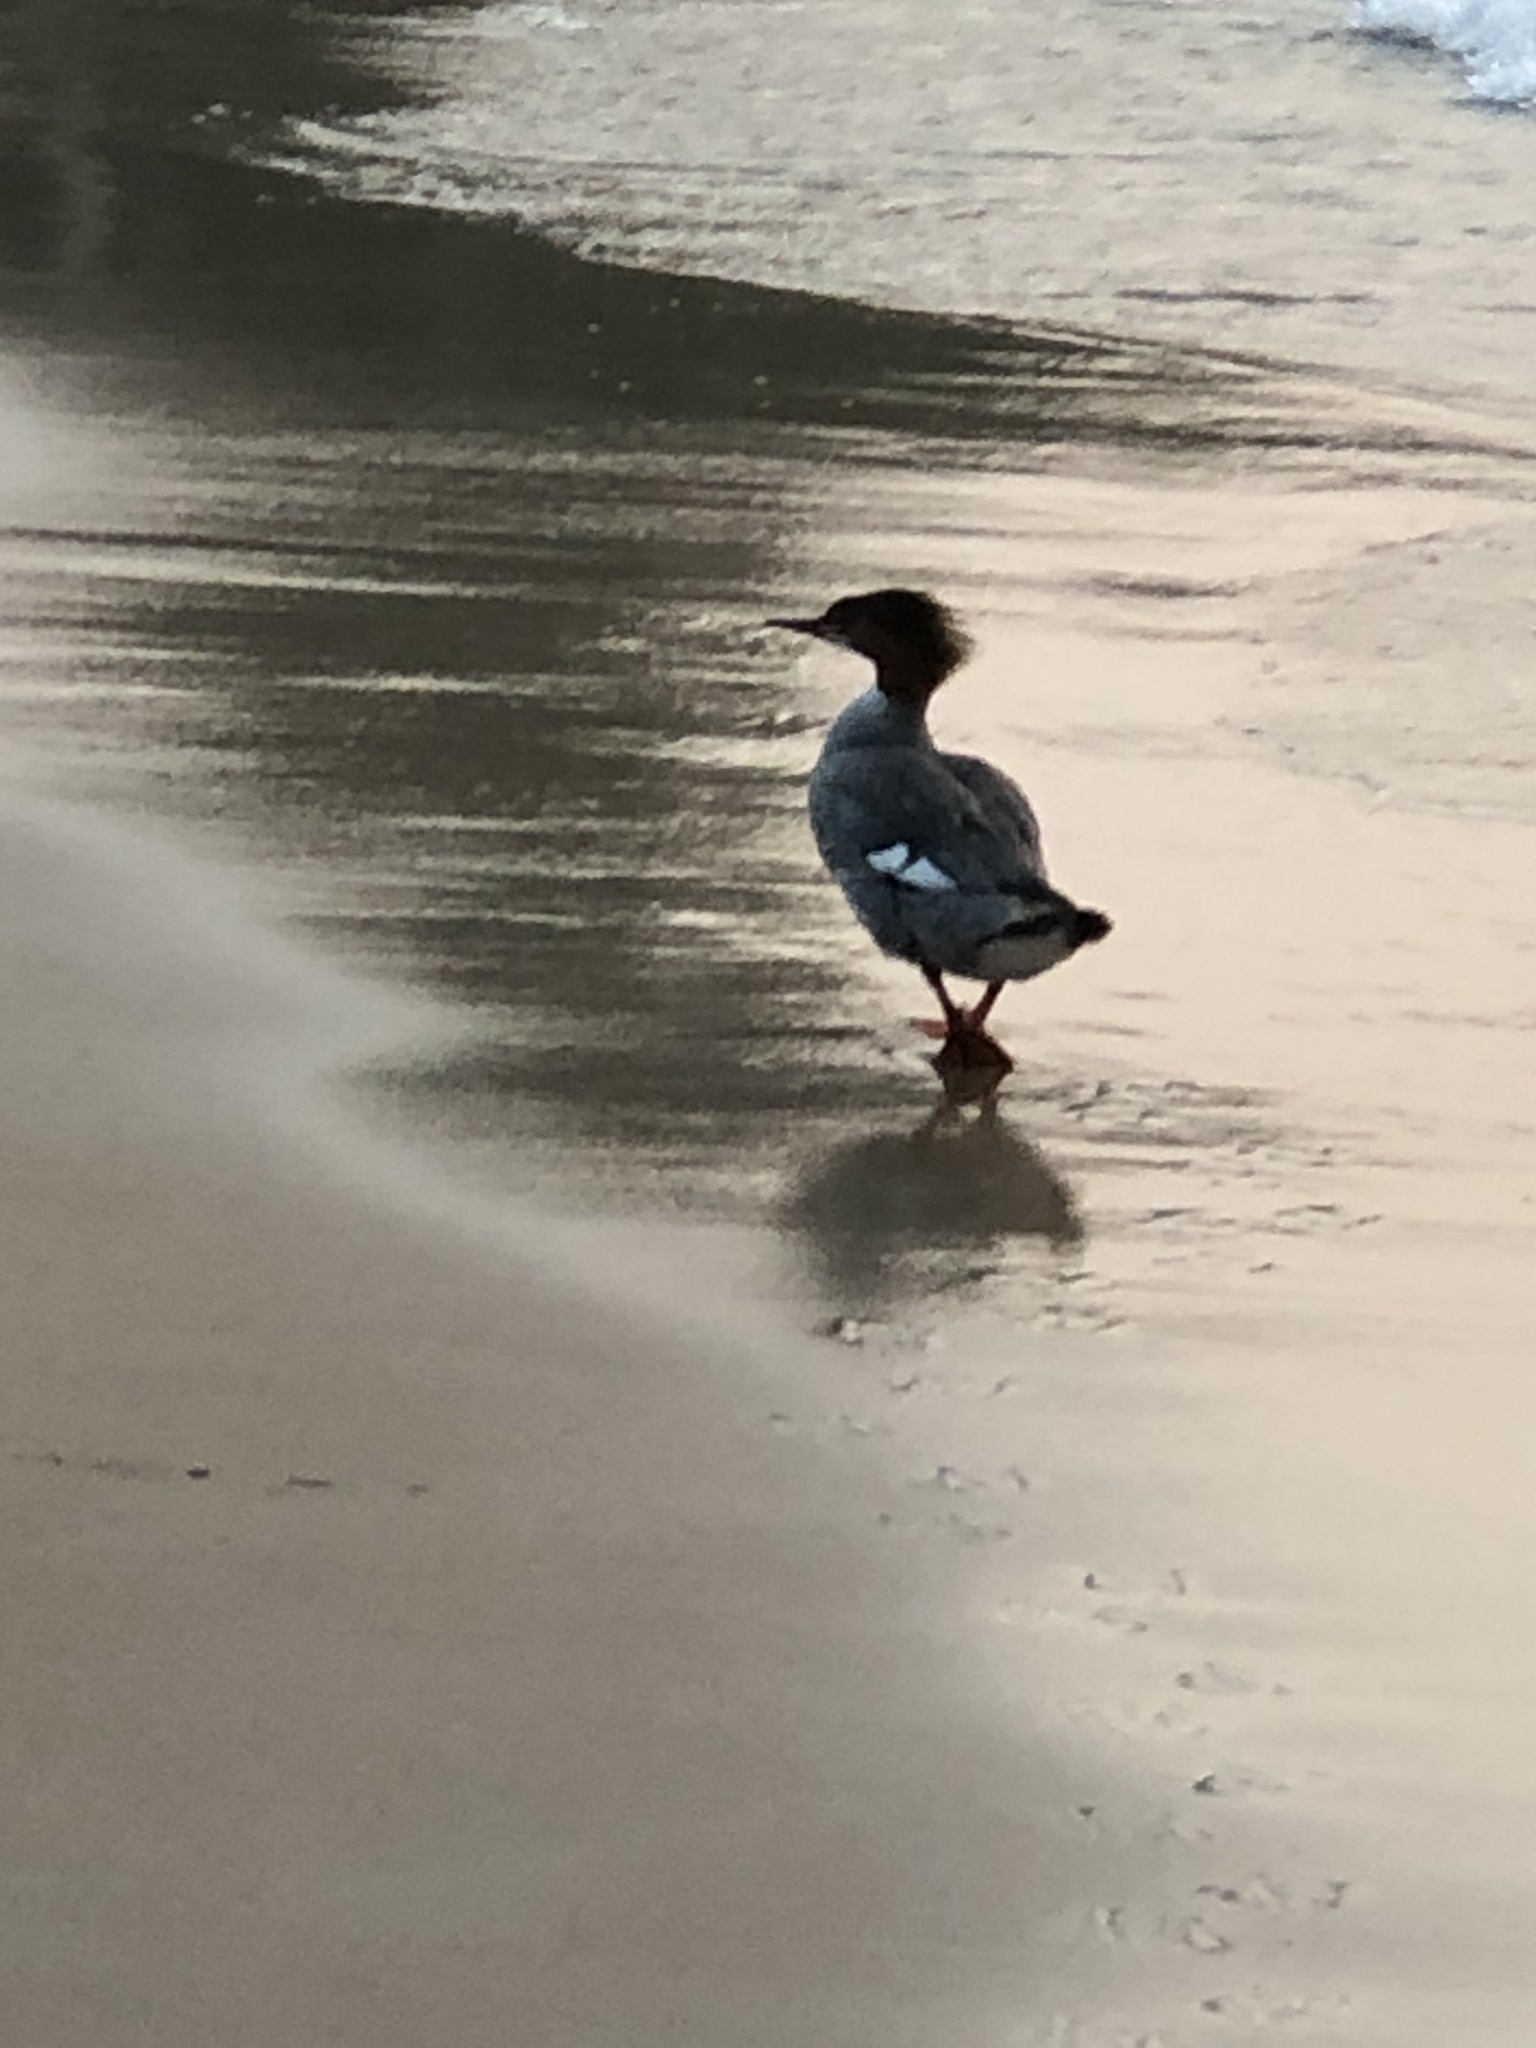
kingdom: Animalia
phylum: Chordata
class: Aves
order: Anseriformes
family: Anatidae
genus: Mergus
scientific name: Mergus merganser
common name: Common merganser
